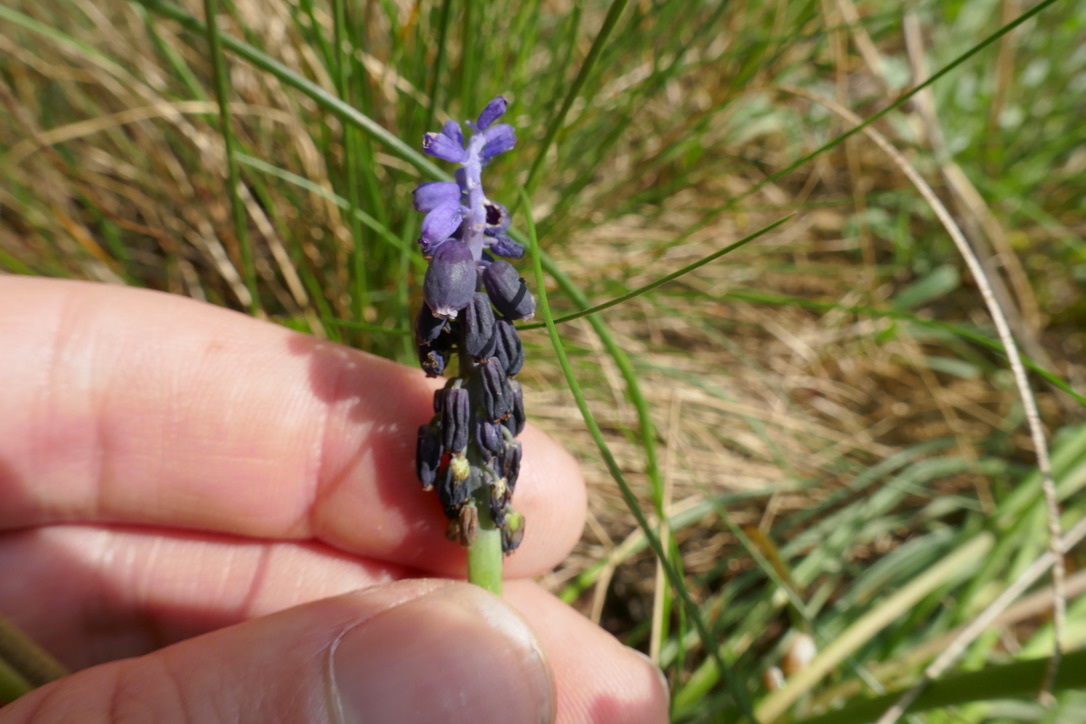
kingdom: Plantae
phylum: Tracheophyta
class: Liliopsida
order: Asparagales
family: Asparagaceae
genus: Muscari
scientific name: Muscari neglectum
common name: Grape-hyacinth
